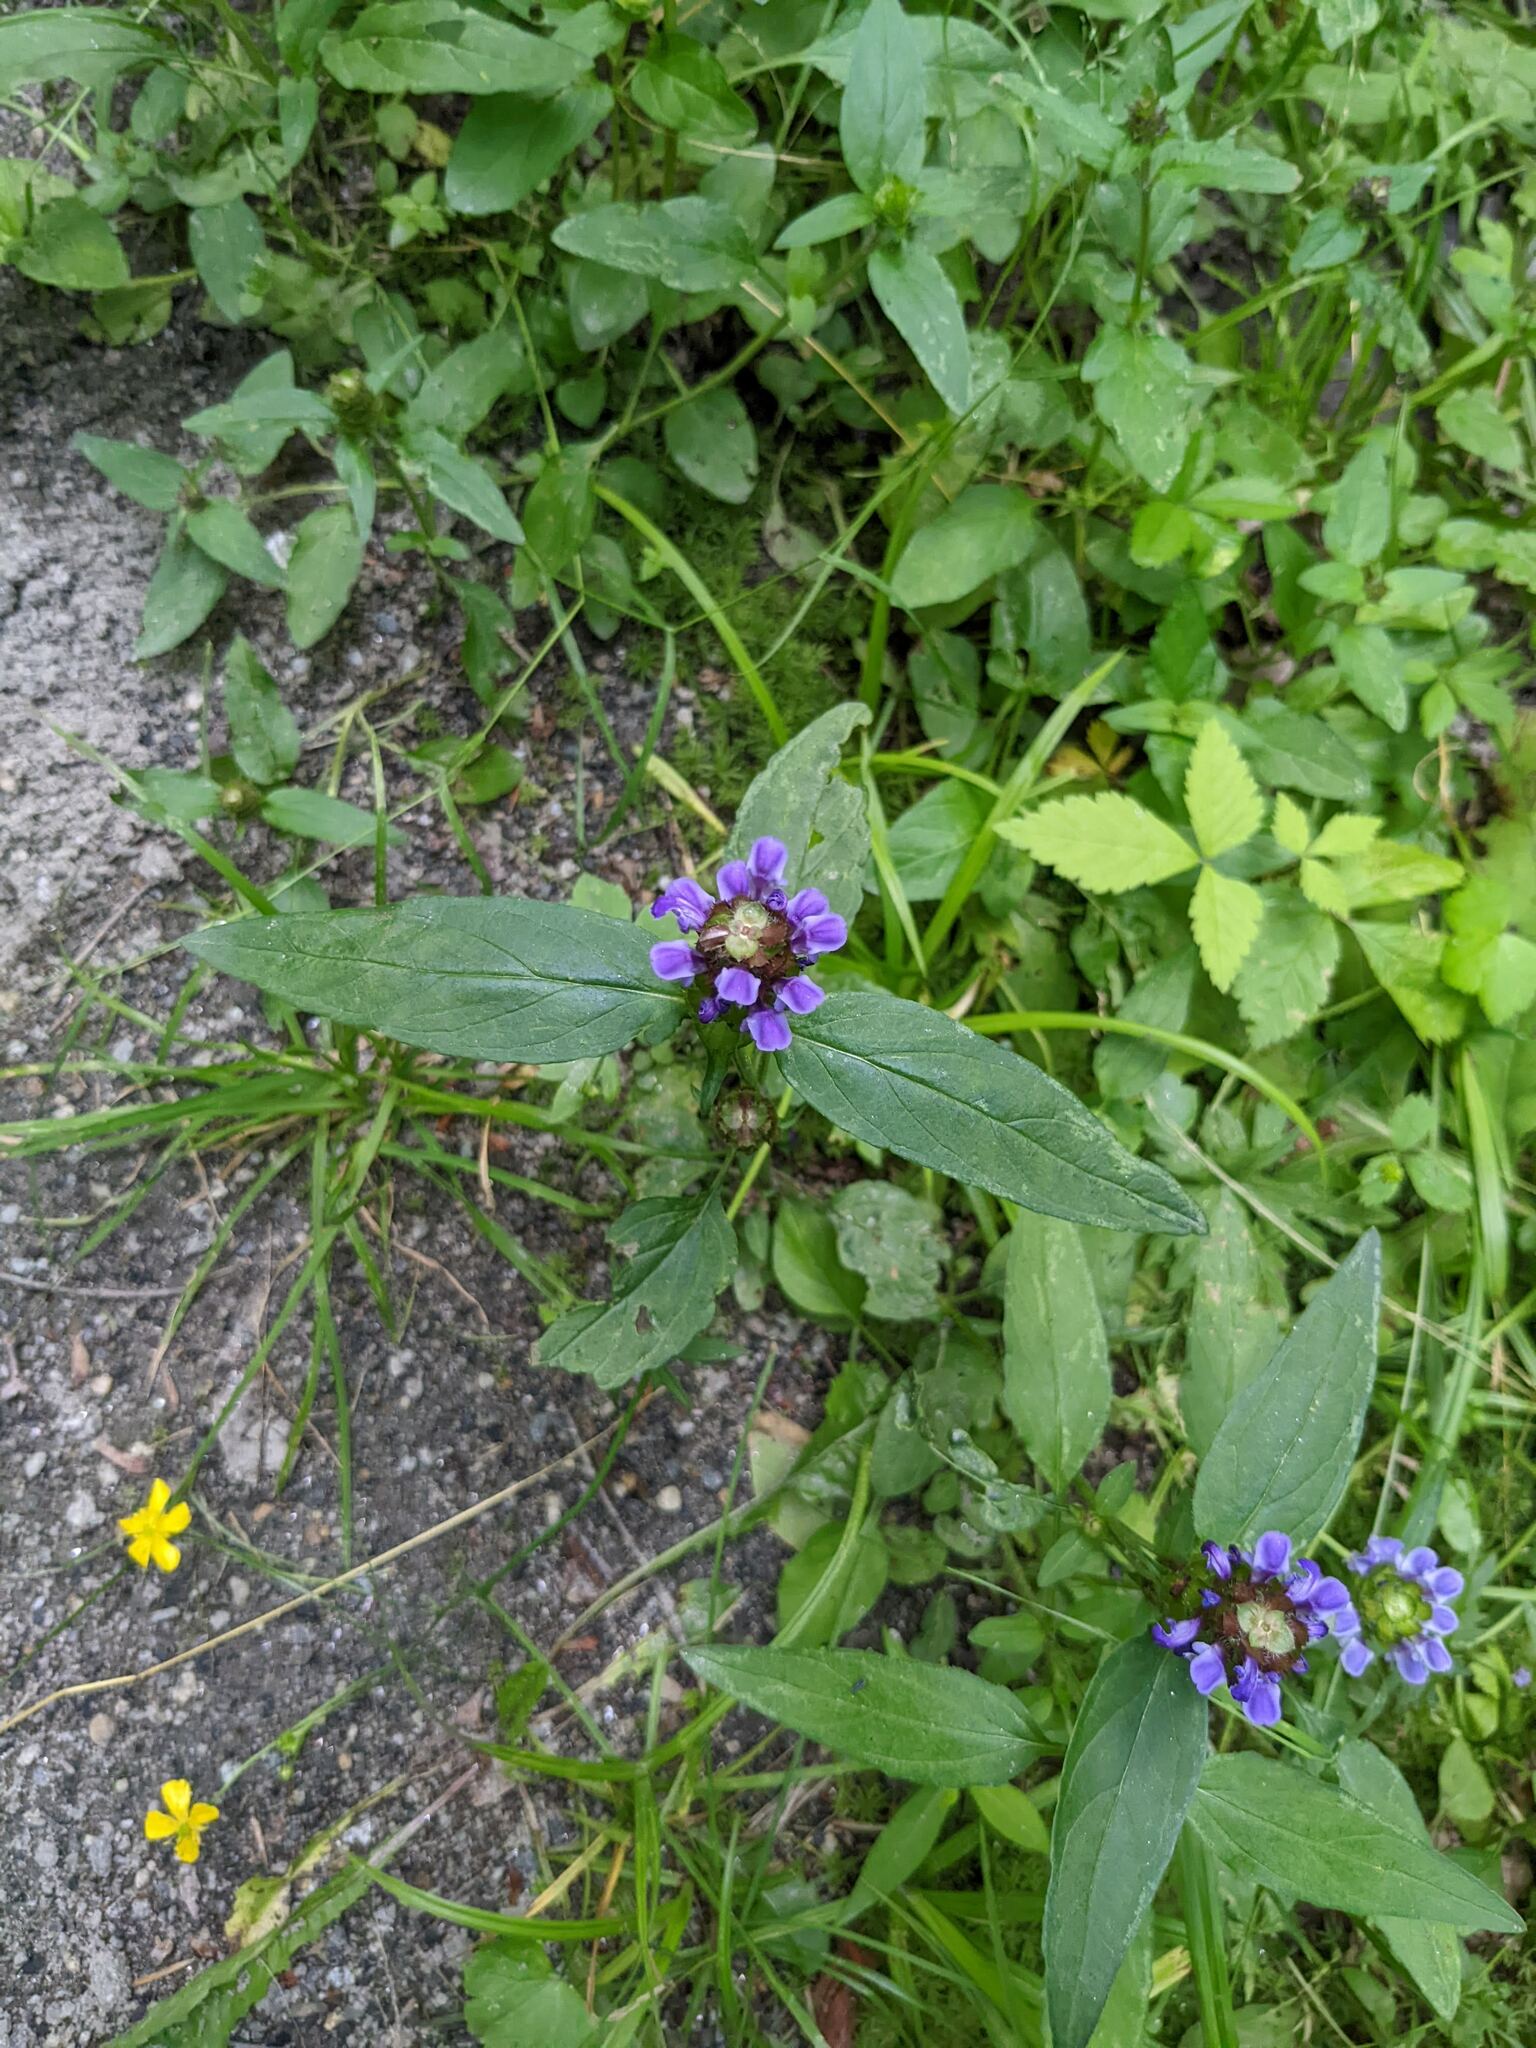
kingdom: Plantae
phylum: Tracheophyta
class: Magnoliopsida
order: Lamiales
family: Lamiaceae
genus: Prunella
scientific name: Prunella vulgaris
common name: Heal-all
